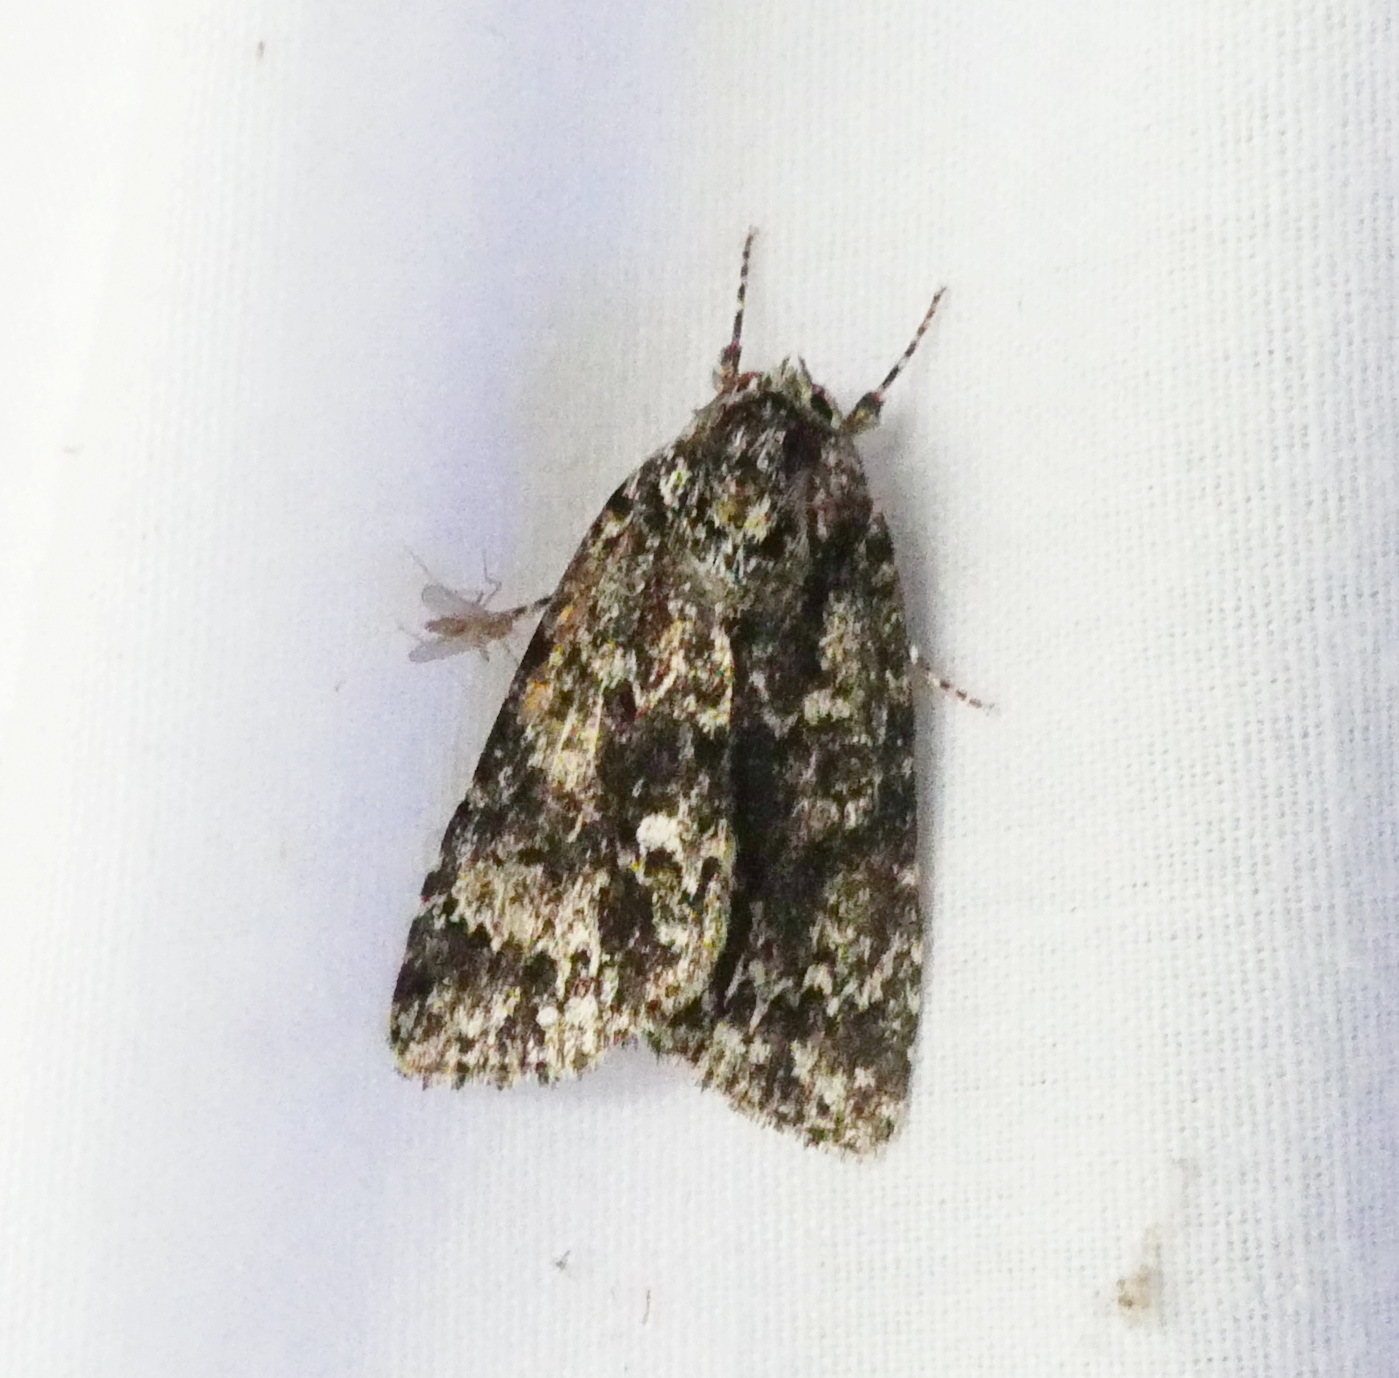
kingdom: Animalia
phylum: Arthropoda
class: Insecta
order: Lepidoptera
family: Noctuidae
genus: Acronicta
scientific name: Acronicta noctivaga
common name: Night-wandering dagger
